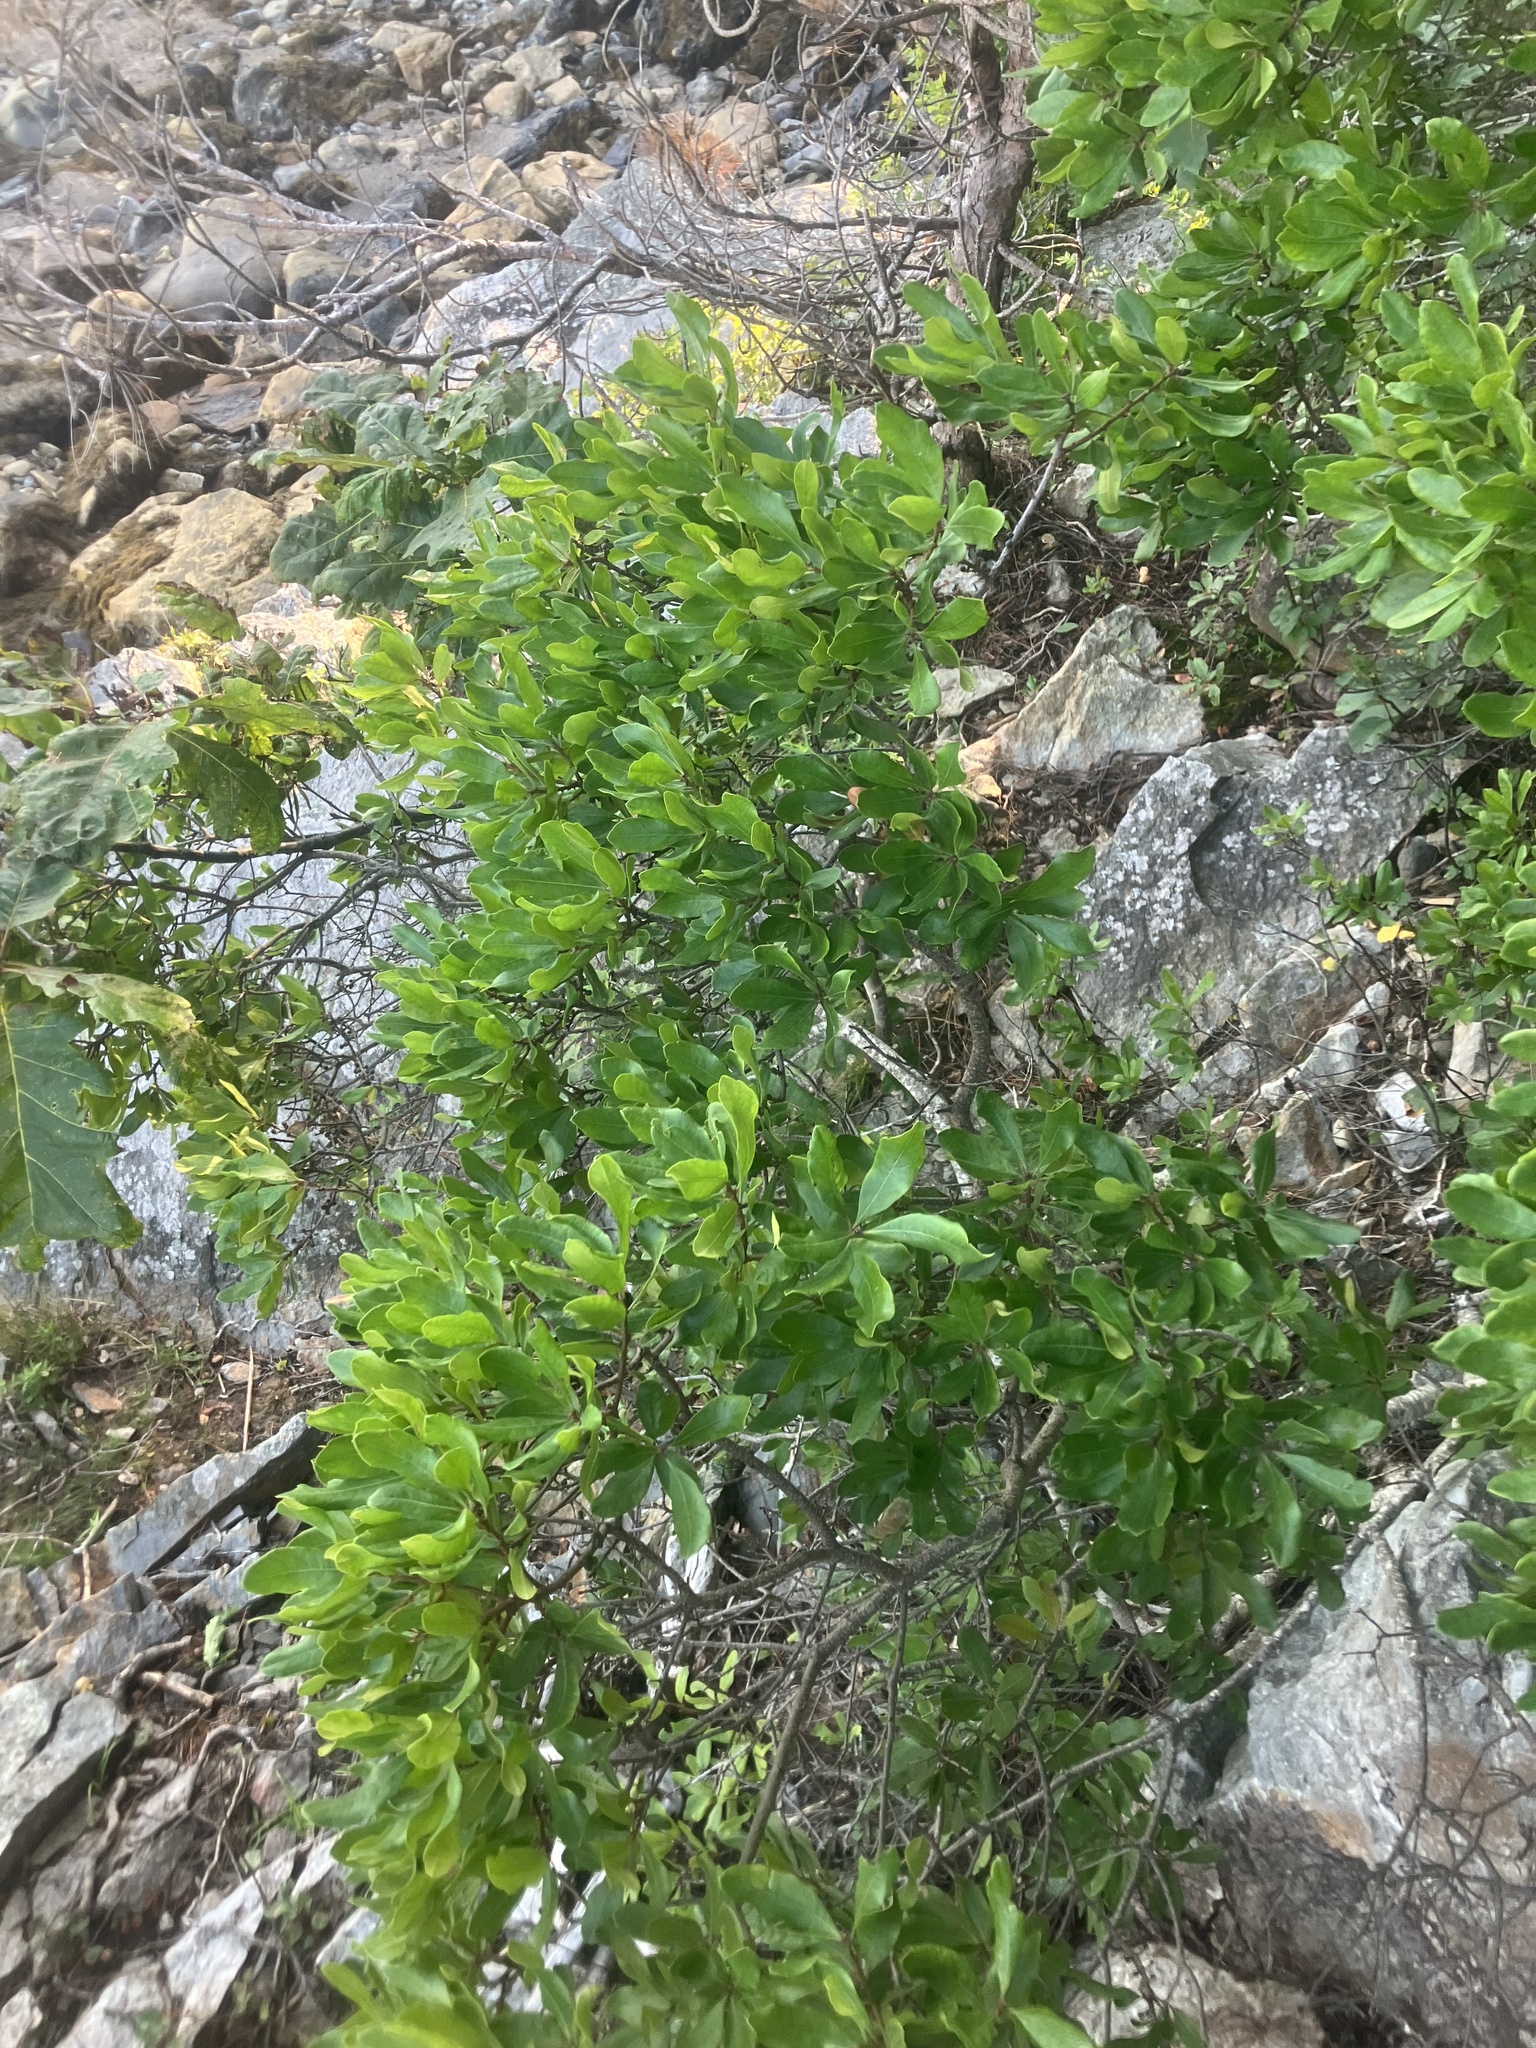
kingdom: Plantae
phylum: Tracheophyta
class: Magnoliopsida
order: Fagales
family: Myricaceae
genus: Morella
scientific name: Morella pensylvanica
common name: Northern bayberry
